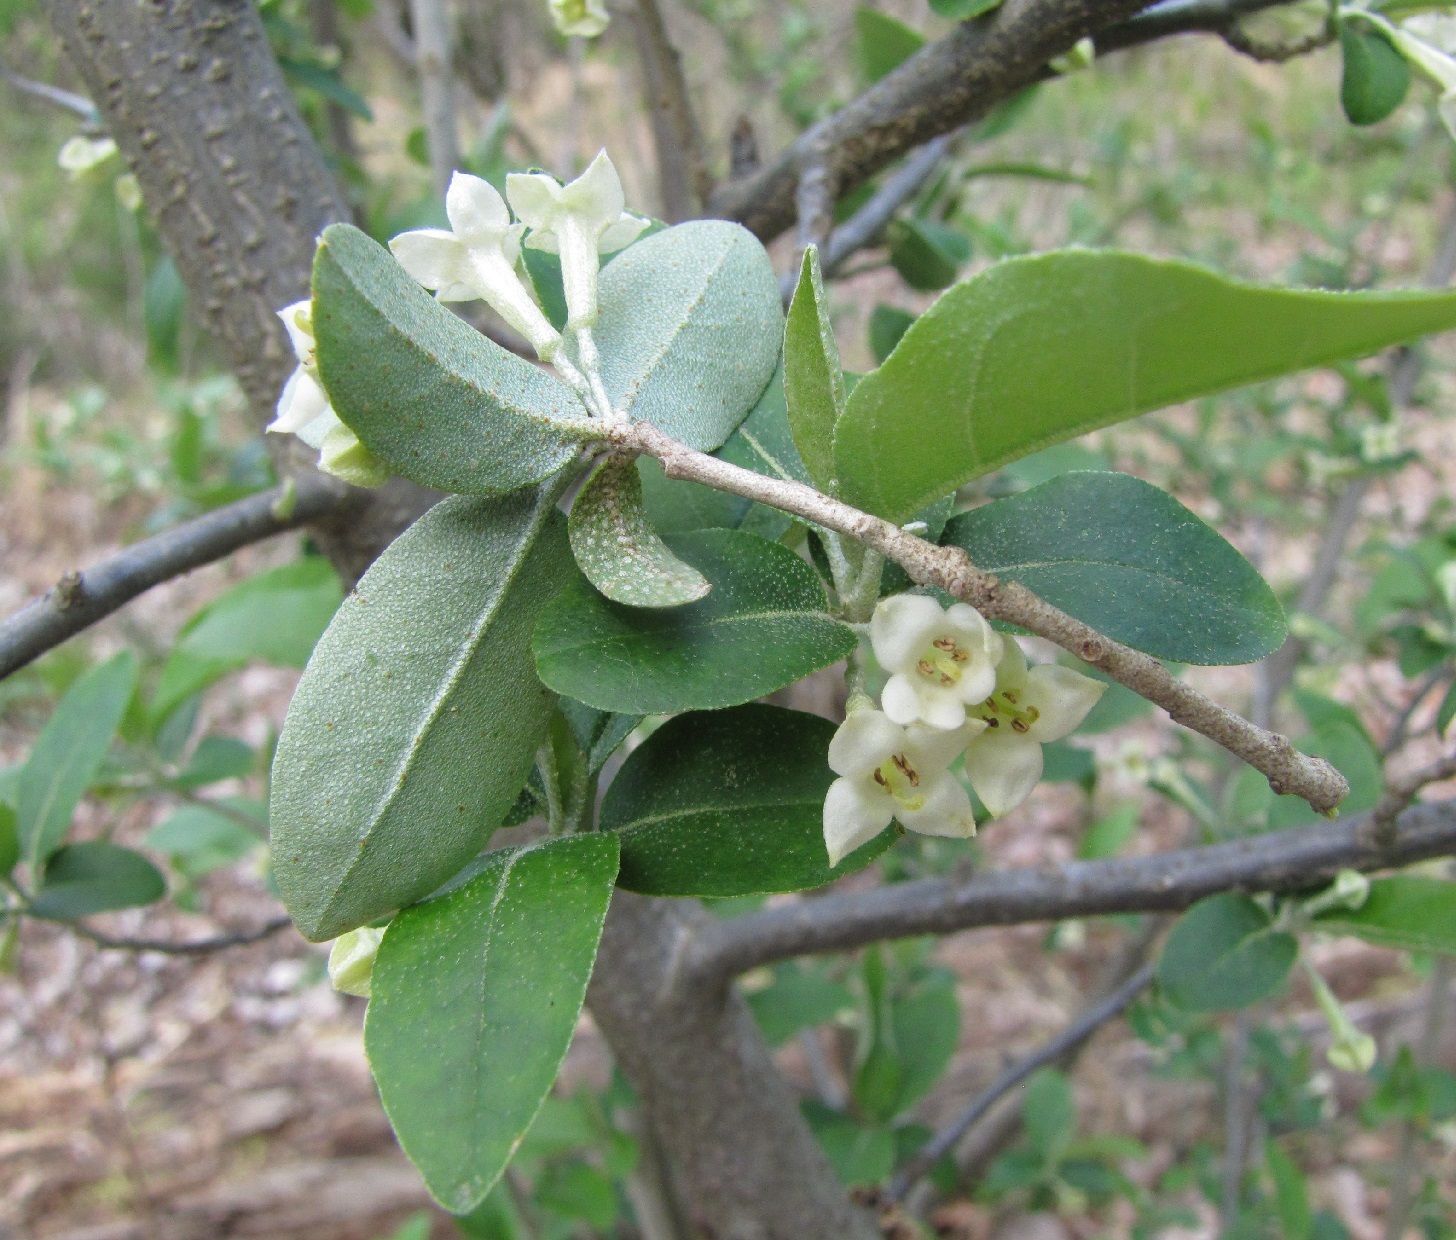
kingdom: Plantae
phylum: Tracheophyta
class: Magnoliopsida
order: Rosales
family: Elaeagnaceae
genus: Elaeagnus
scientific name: Elaeagnus umbellata
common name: Autumn olive
